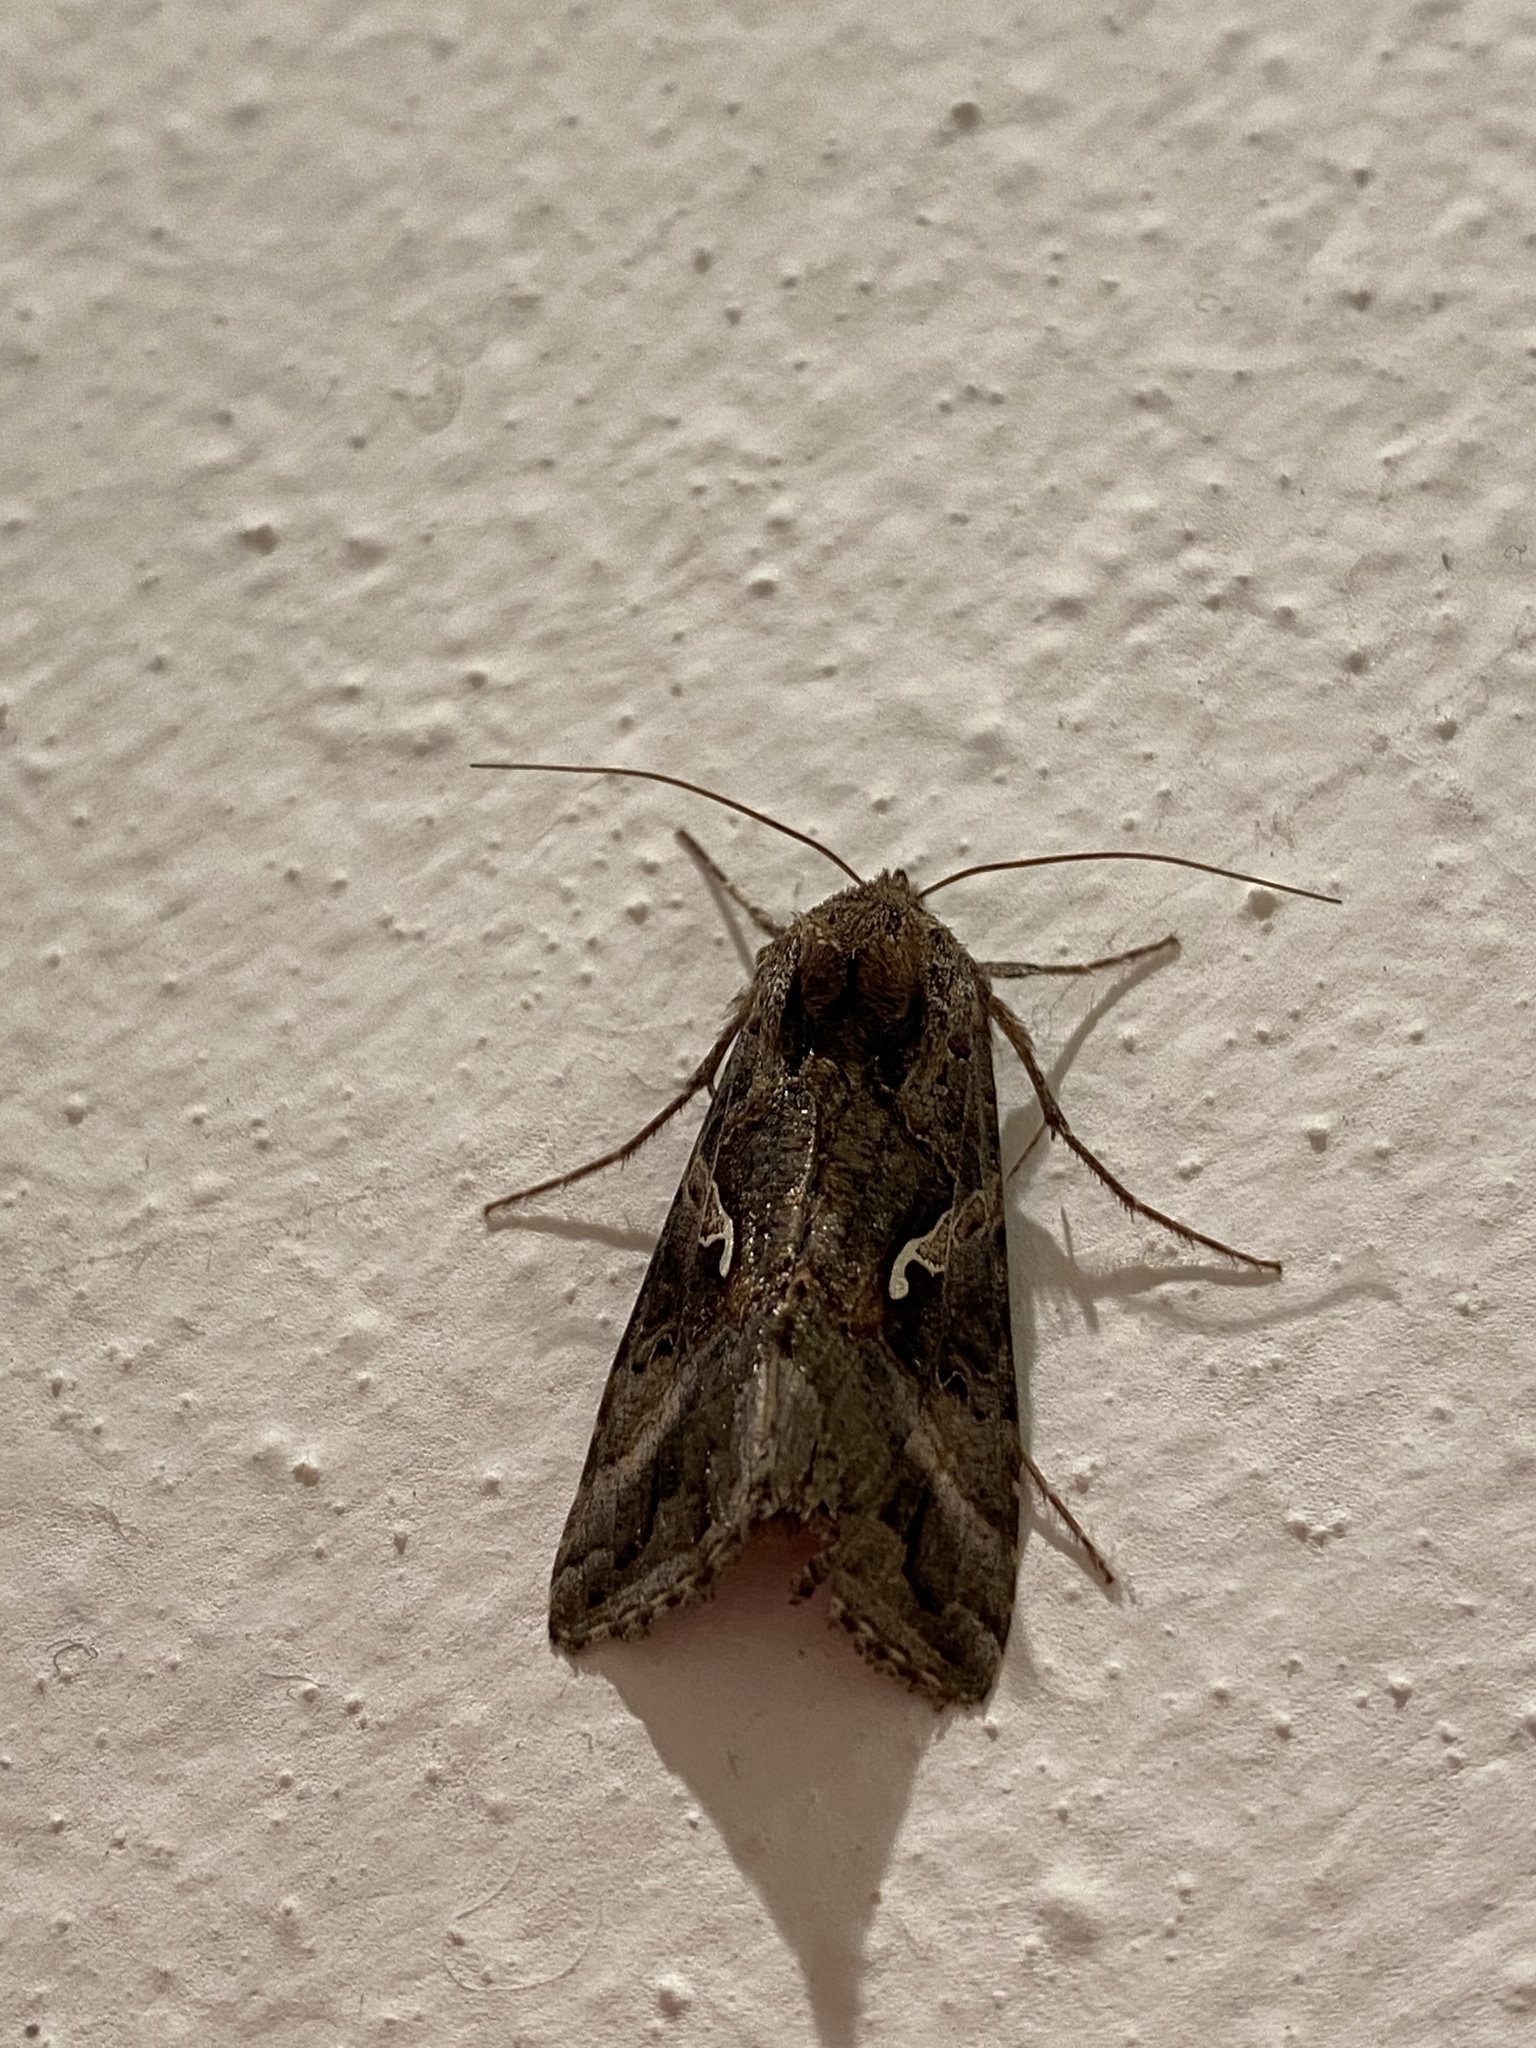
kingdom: Animalia
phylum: Arthropoda
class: Insecta
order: Lepidoptera
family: Noctuidae
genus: Autographa
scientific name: Autographa gamma
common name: Silver y
